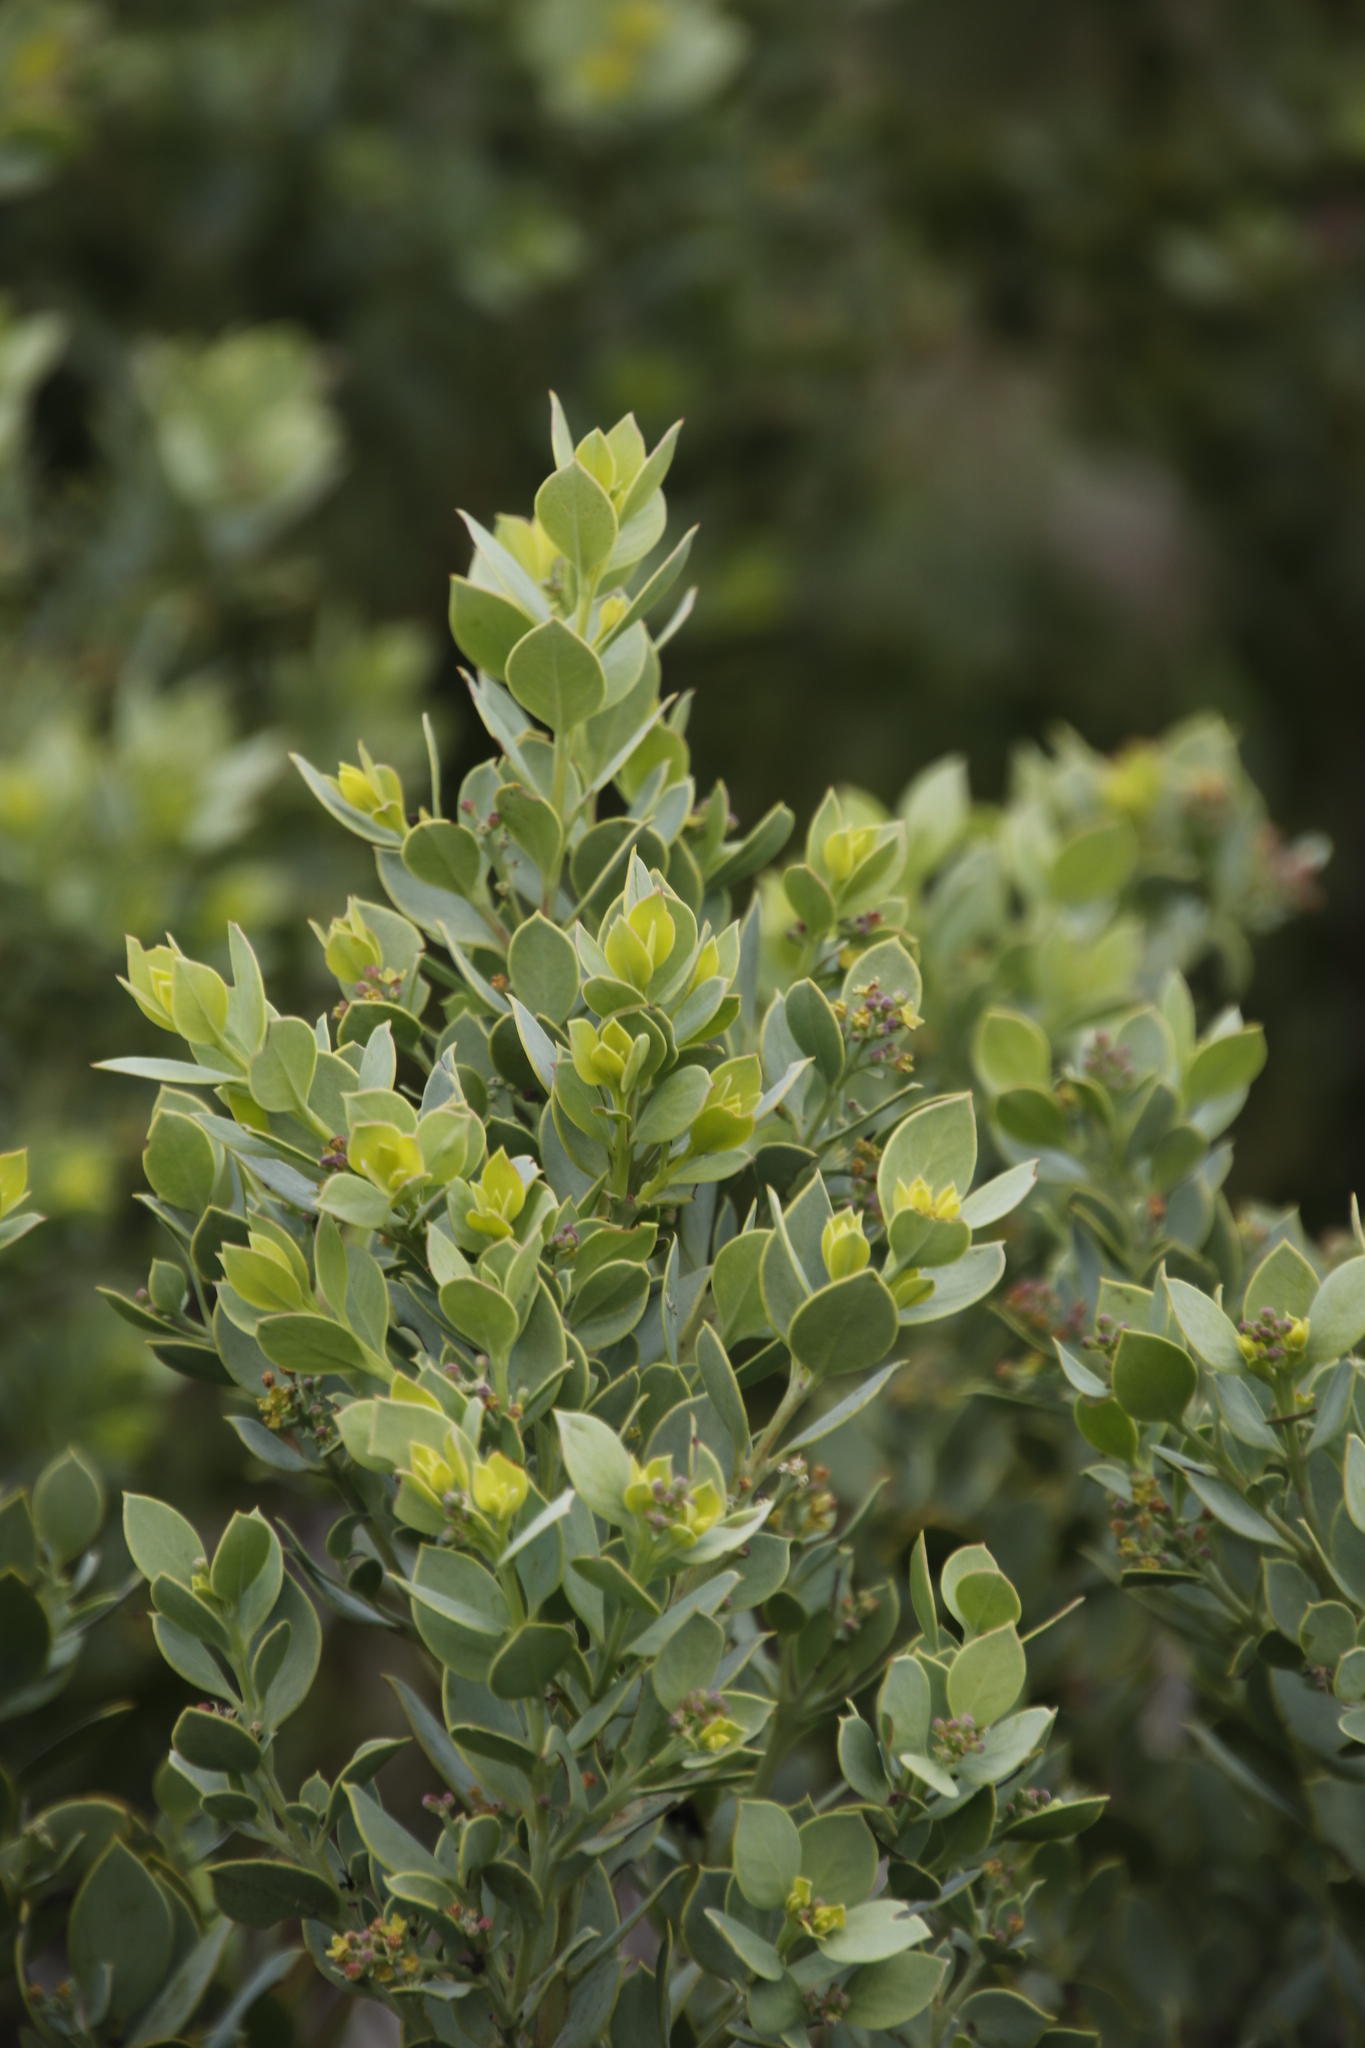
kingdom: Plantae
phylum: Tracheophyta
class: Magnoliopsida
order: Santalales
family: Santalaceae
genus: Osyris
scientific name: Osyris compressa
